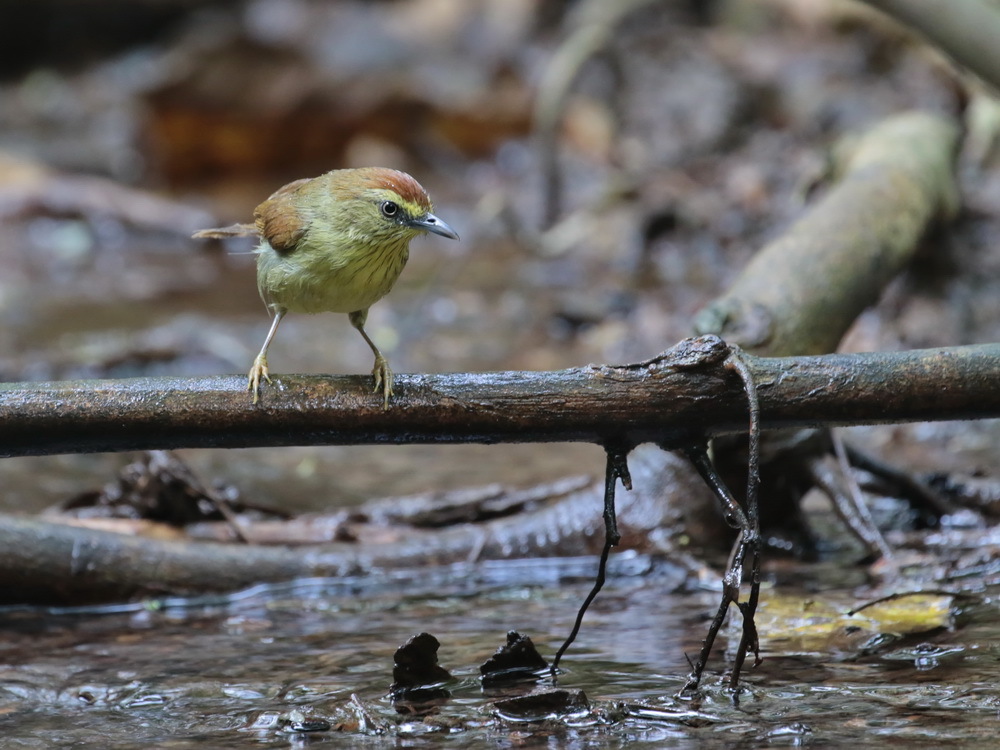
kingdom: Animalia
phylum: Chordata
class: Aves
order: Passeriformes
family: Timaliidae
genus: Macronus
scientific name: Macronus gularis
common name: Striped tit-babbler
